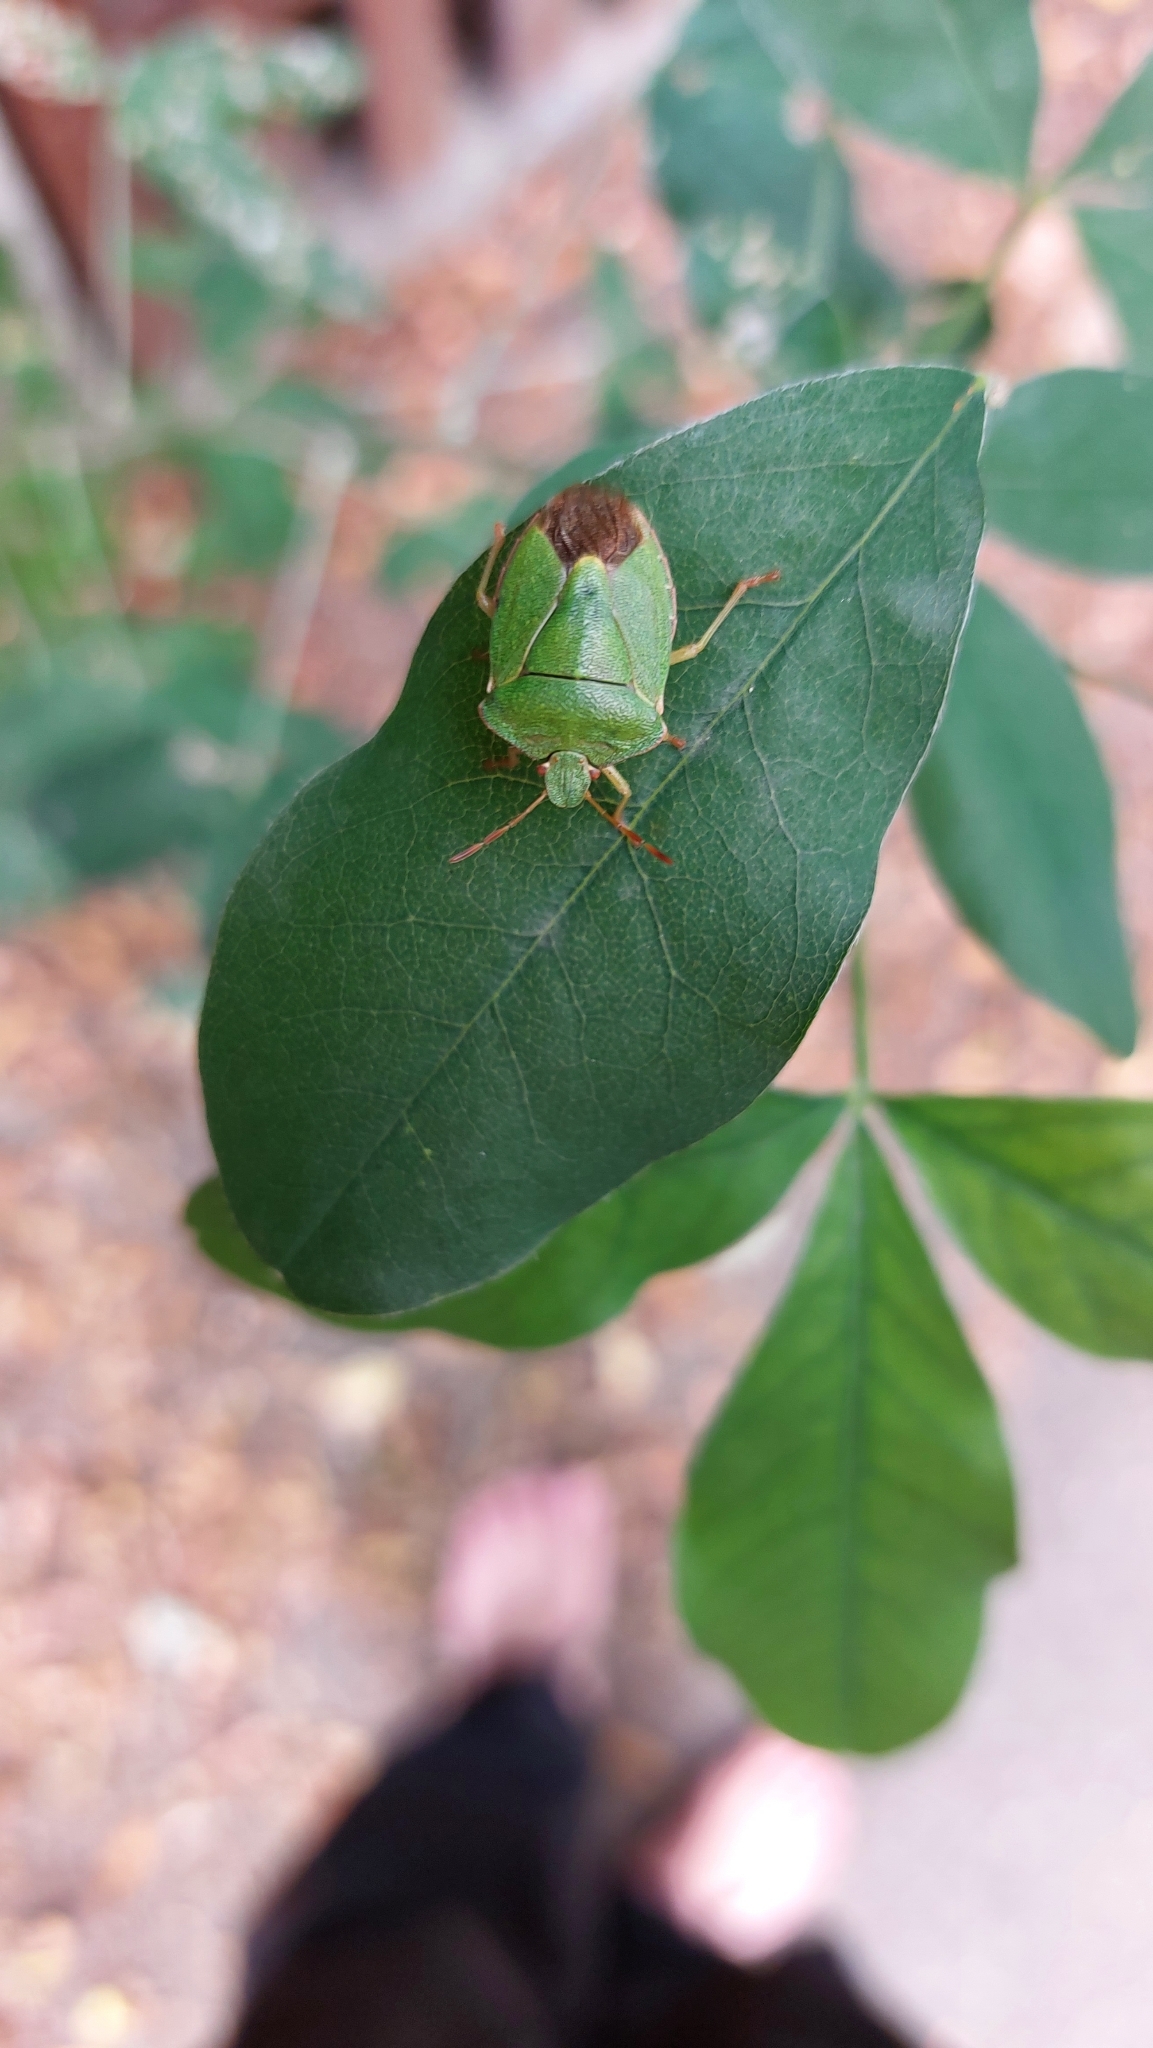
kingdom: Animalia
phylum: Arthropoda
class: Insecta
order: Hemiptera
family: Pentatomidae
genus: Palomena
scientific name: Palomena prasina
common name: Green shieldbug
